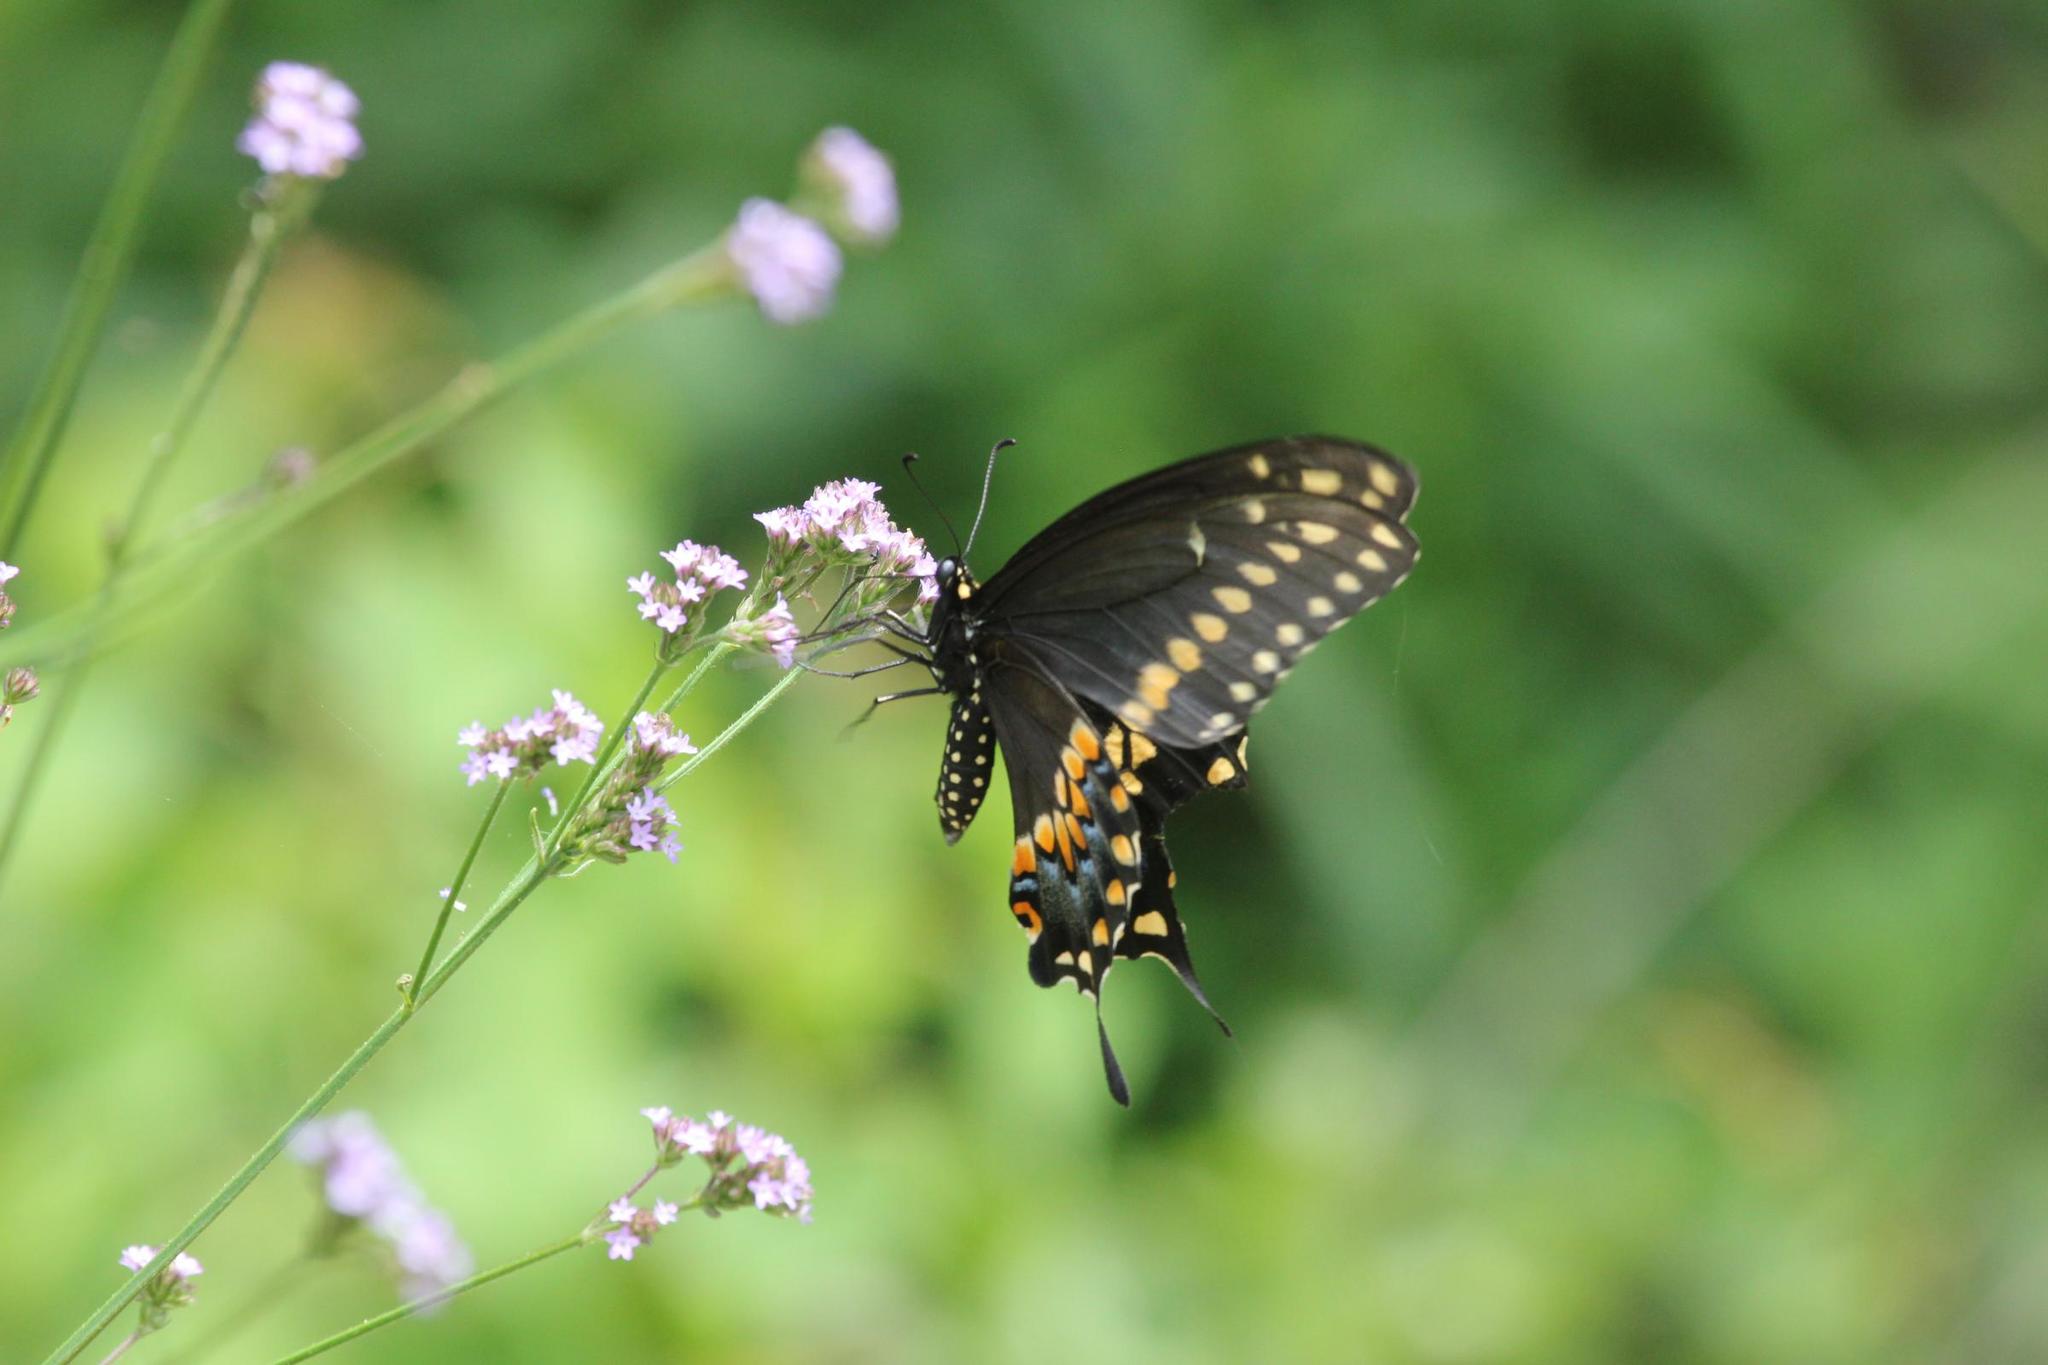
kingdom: Animalia
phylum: Arthropoda
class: Insecta
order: Lepidoptera
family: Papilionidae
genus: Papilio
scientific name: Papilio polyxenes
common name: Black swallowtail
